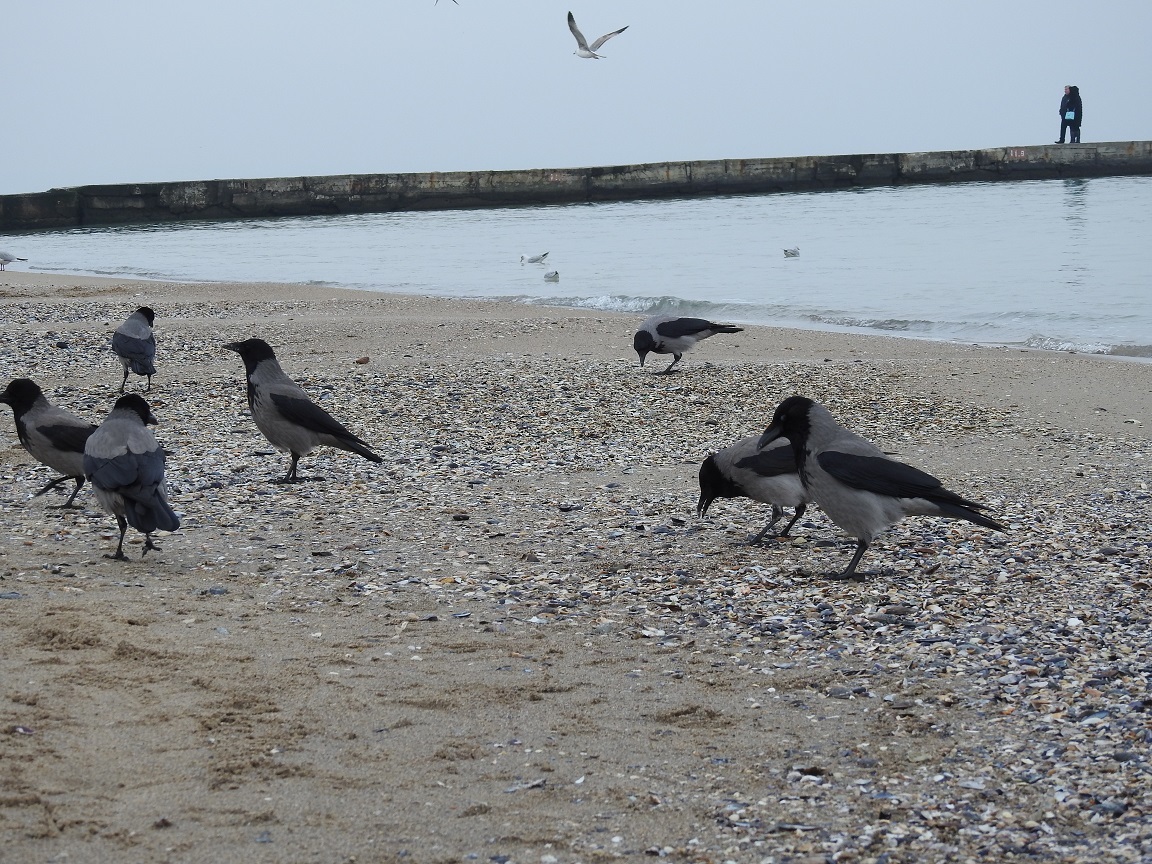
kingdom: Animalia
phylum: Chordata
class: Aves
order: Passeriformes
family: Corvidae
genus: Corvus
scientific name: Corvus cornix
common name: Hooded crow
